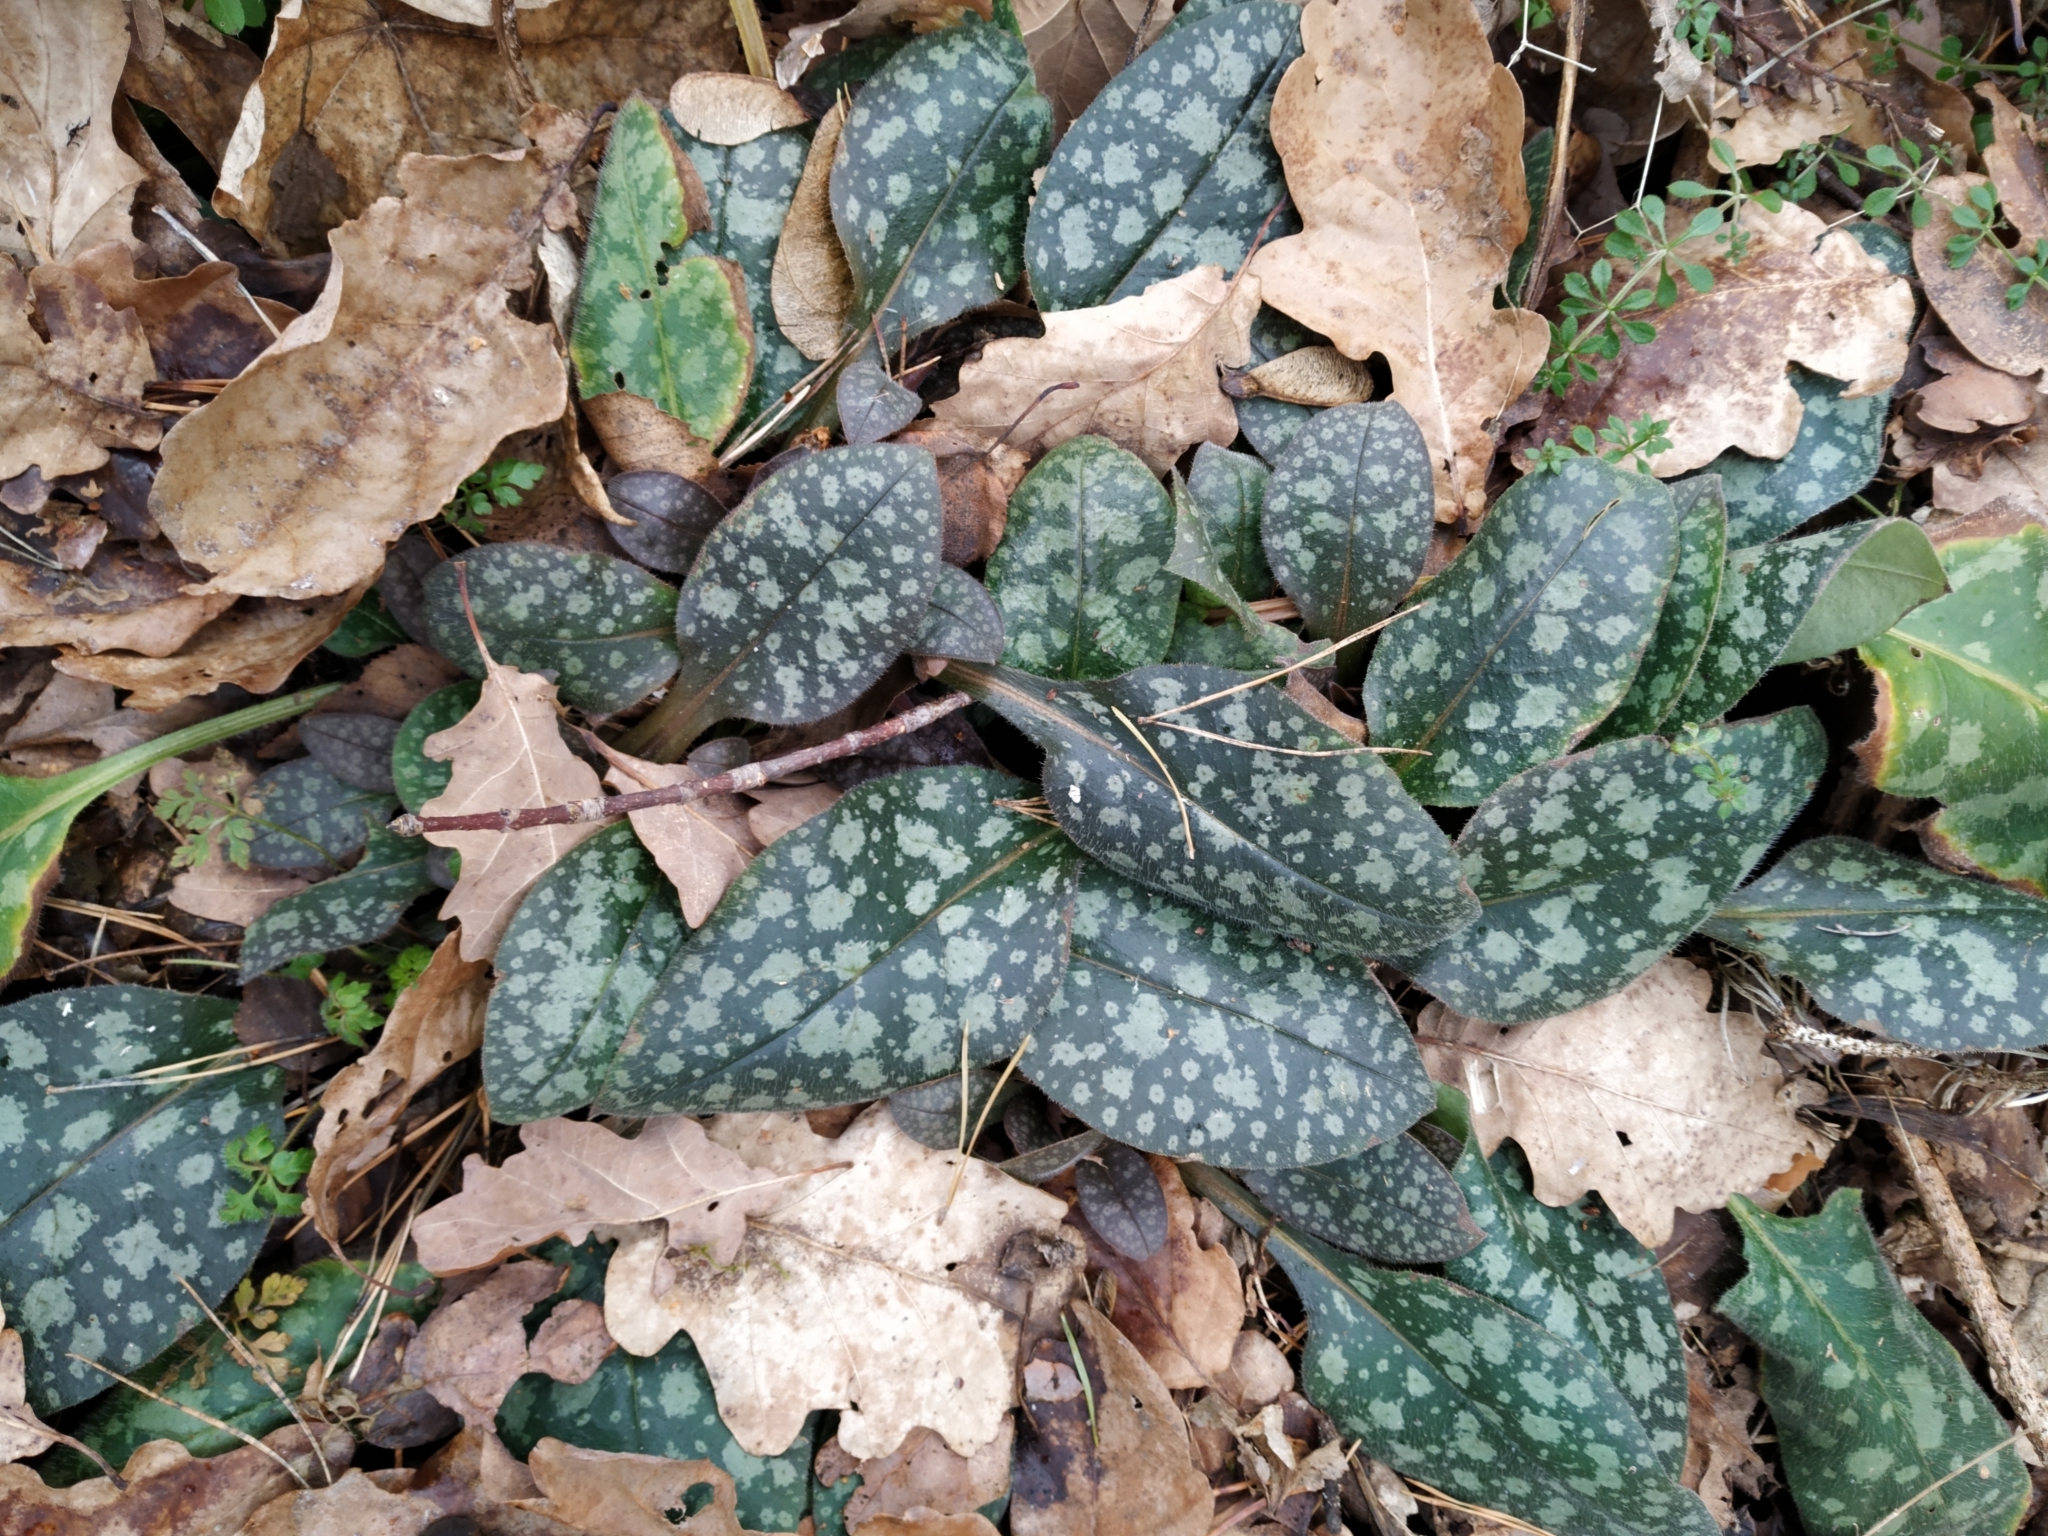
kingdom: Plantae
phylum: Tracheophyta
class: Magnoliopsida
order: Boraginales
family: Boraginaceae
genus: Pulmonaria
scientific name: Pulmonaria officinalis
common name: Lungwort
